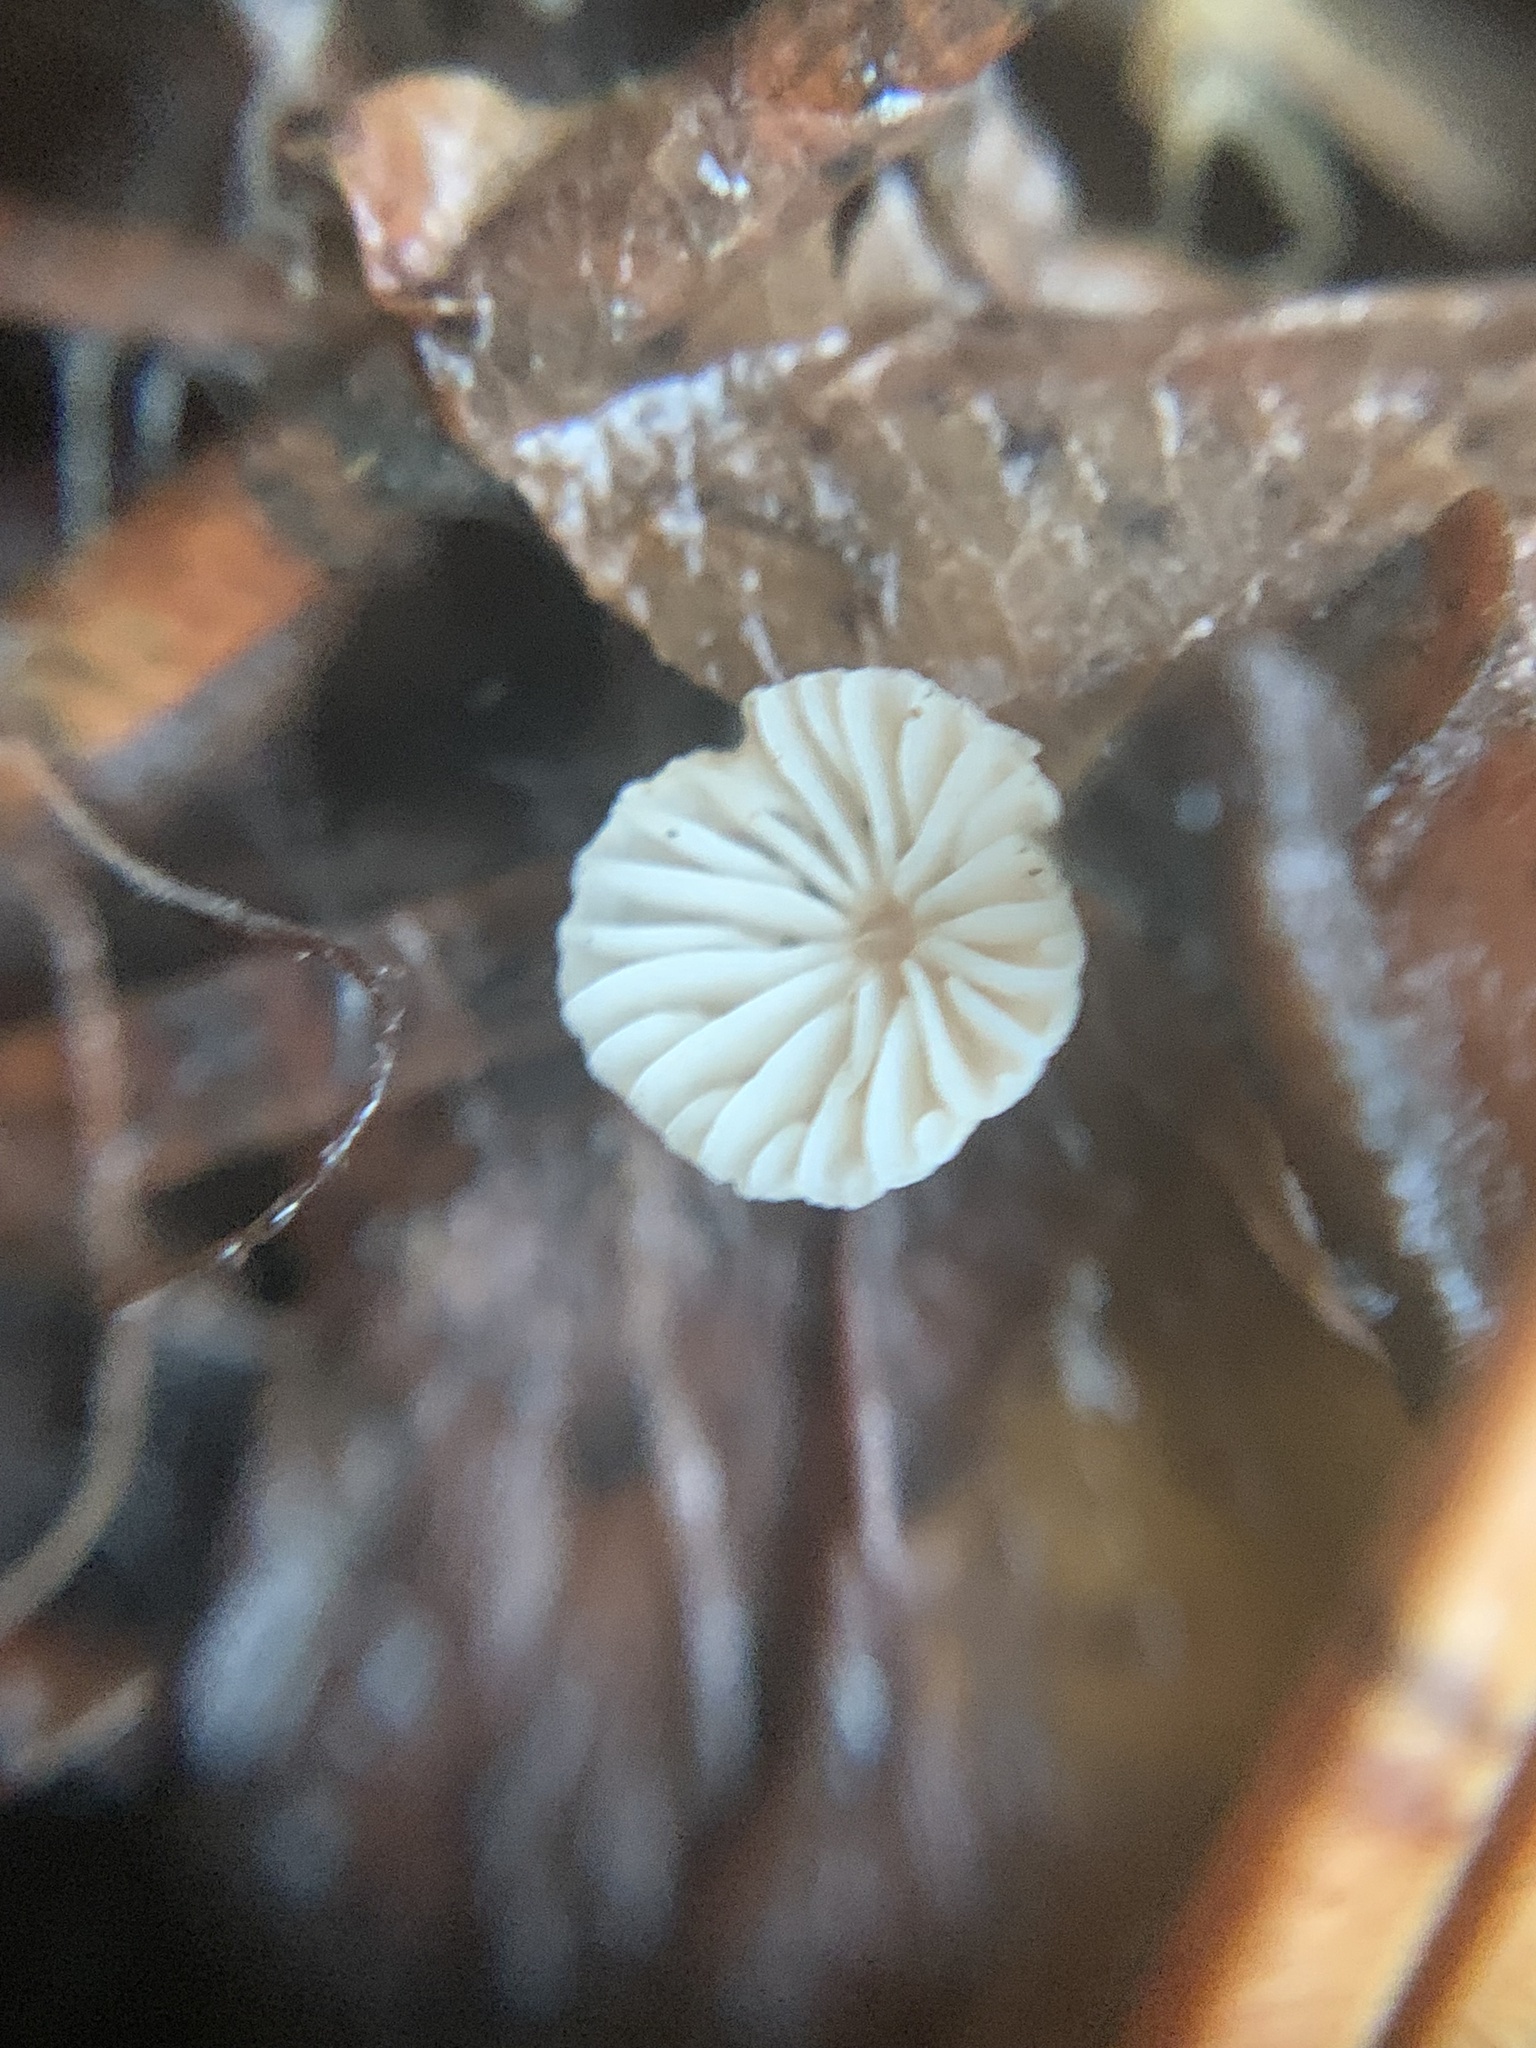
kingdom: Fungi
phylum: Basidiomycota
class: Agaricomycetes
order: Agaricales
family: Omphalotaceae
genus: Collybiopsis
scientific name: Collybiopsis quercophila
